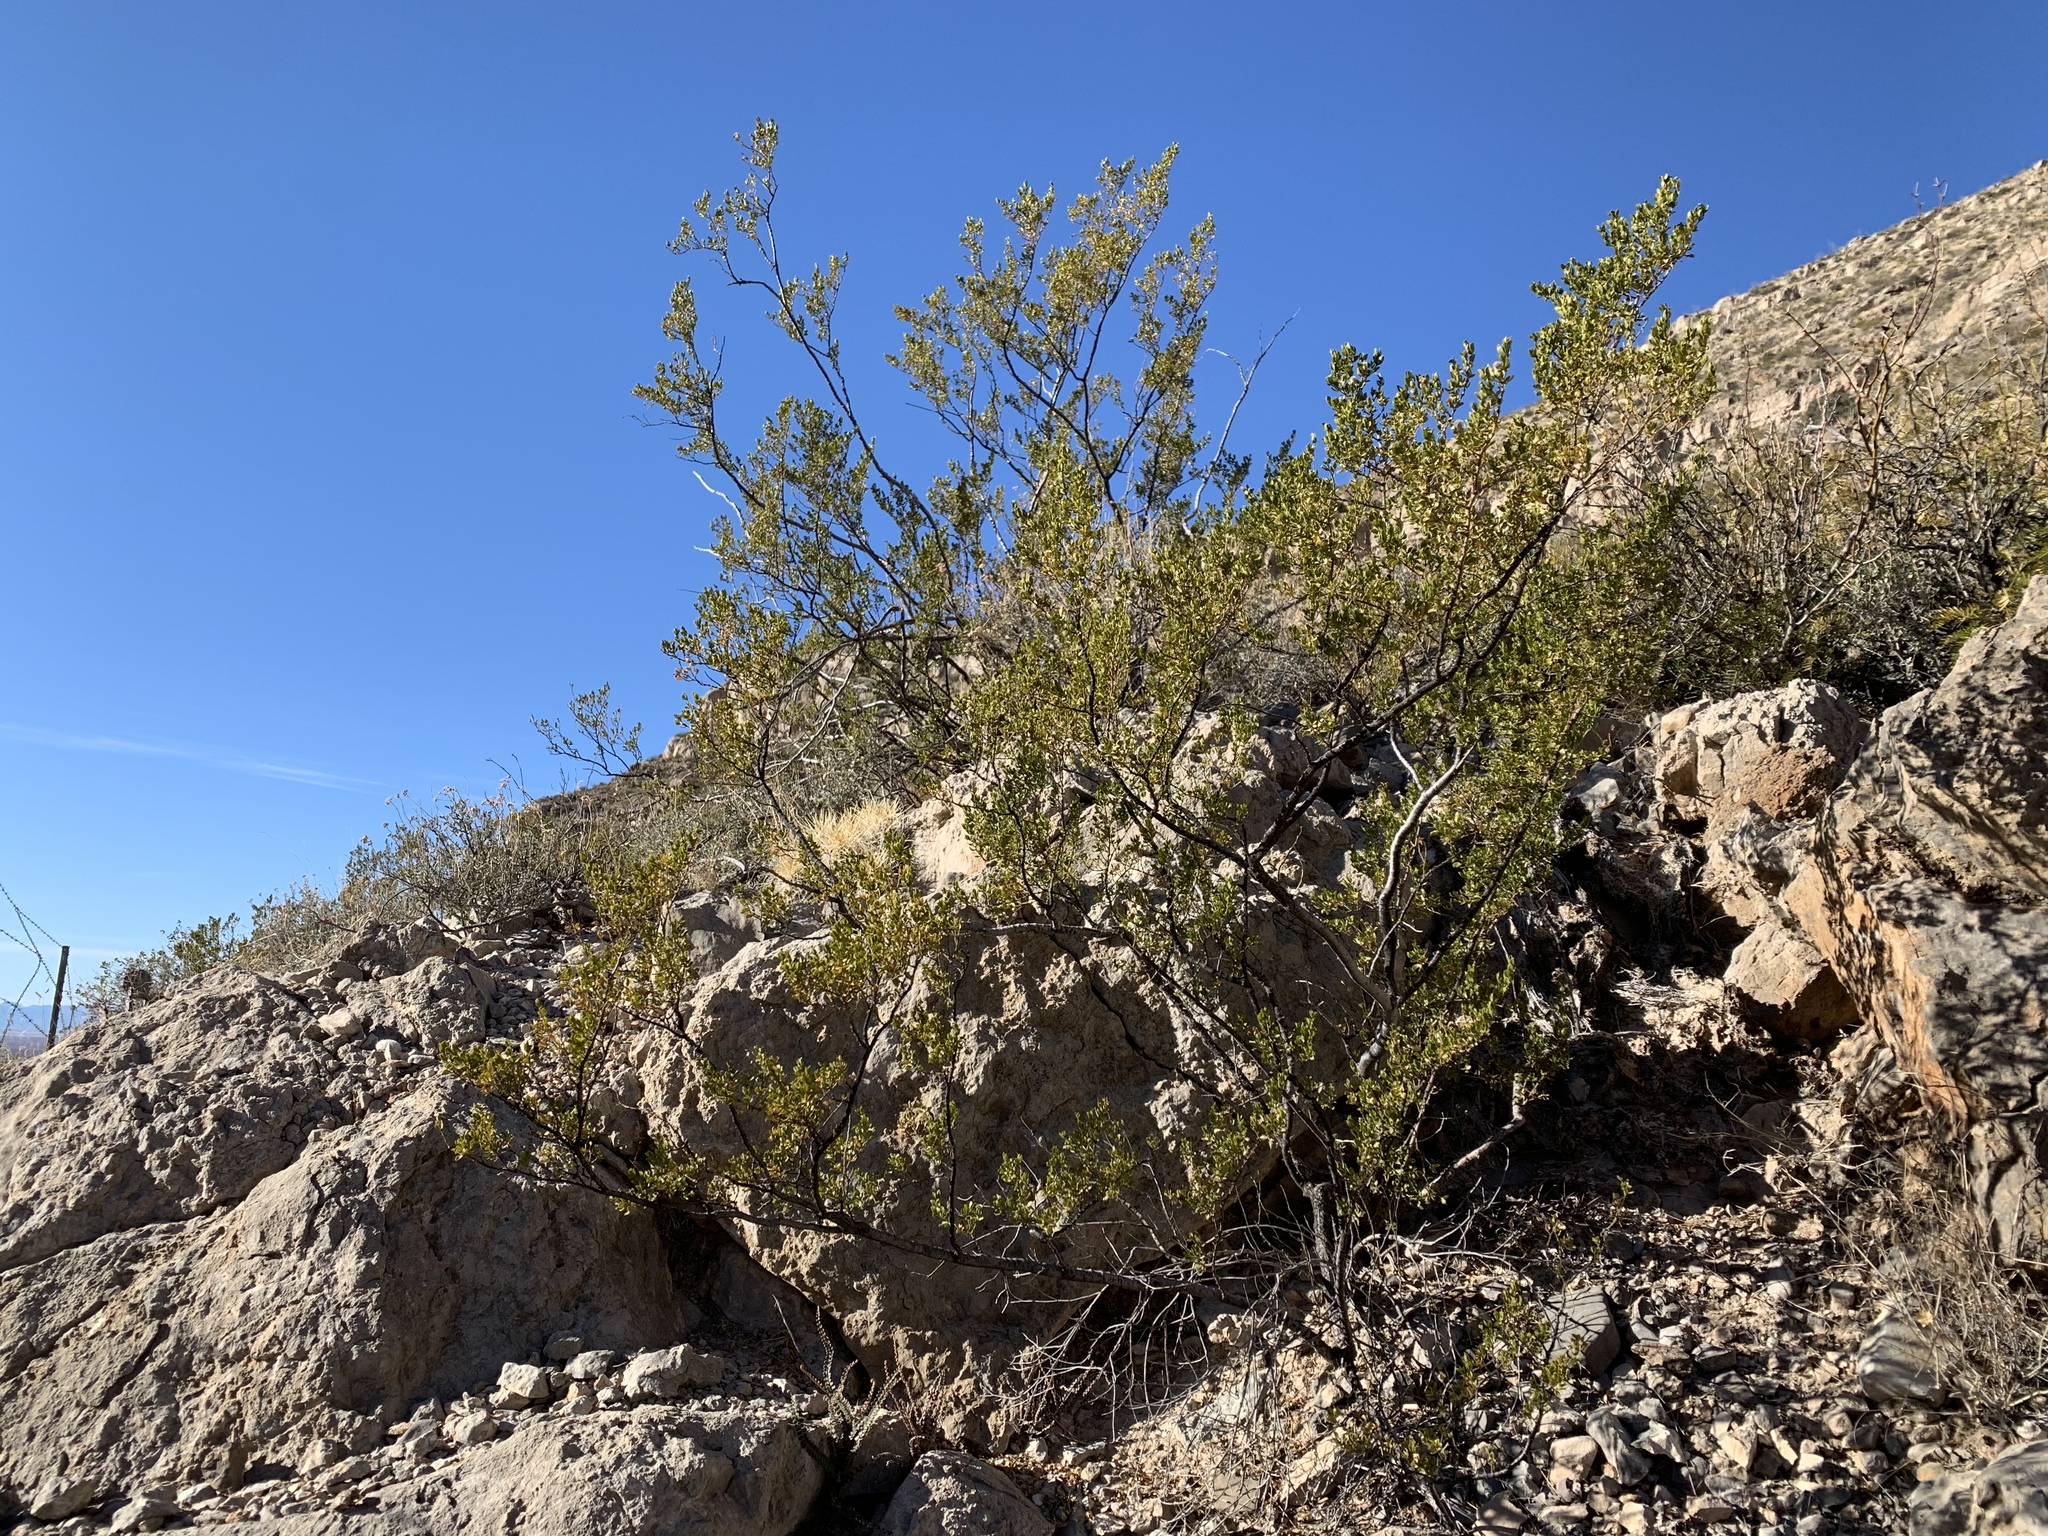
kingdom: Plantae
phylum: Tracheophyta
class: Magnoliopsida
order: Zygophyllales
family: Zygophyllaceae
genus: Larrea
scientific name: Larrea tridentata
